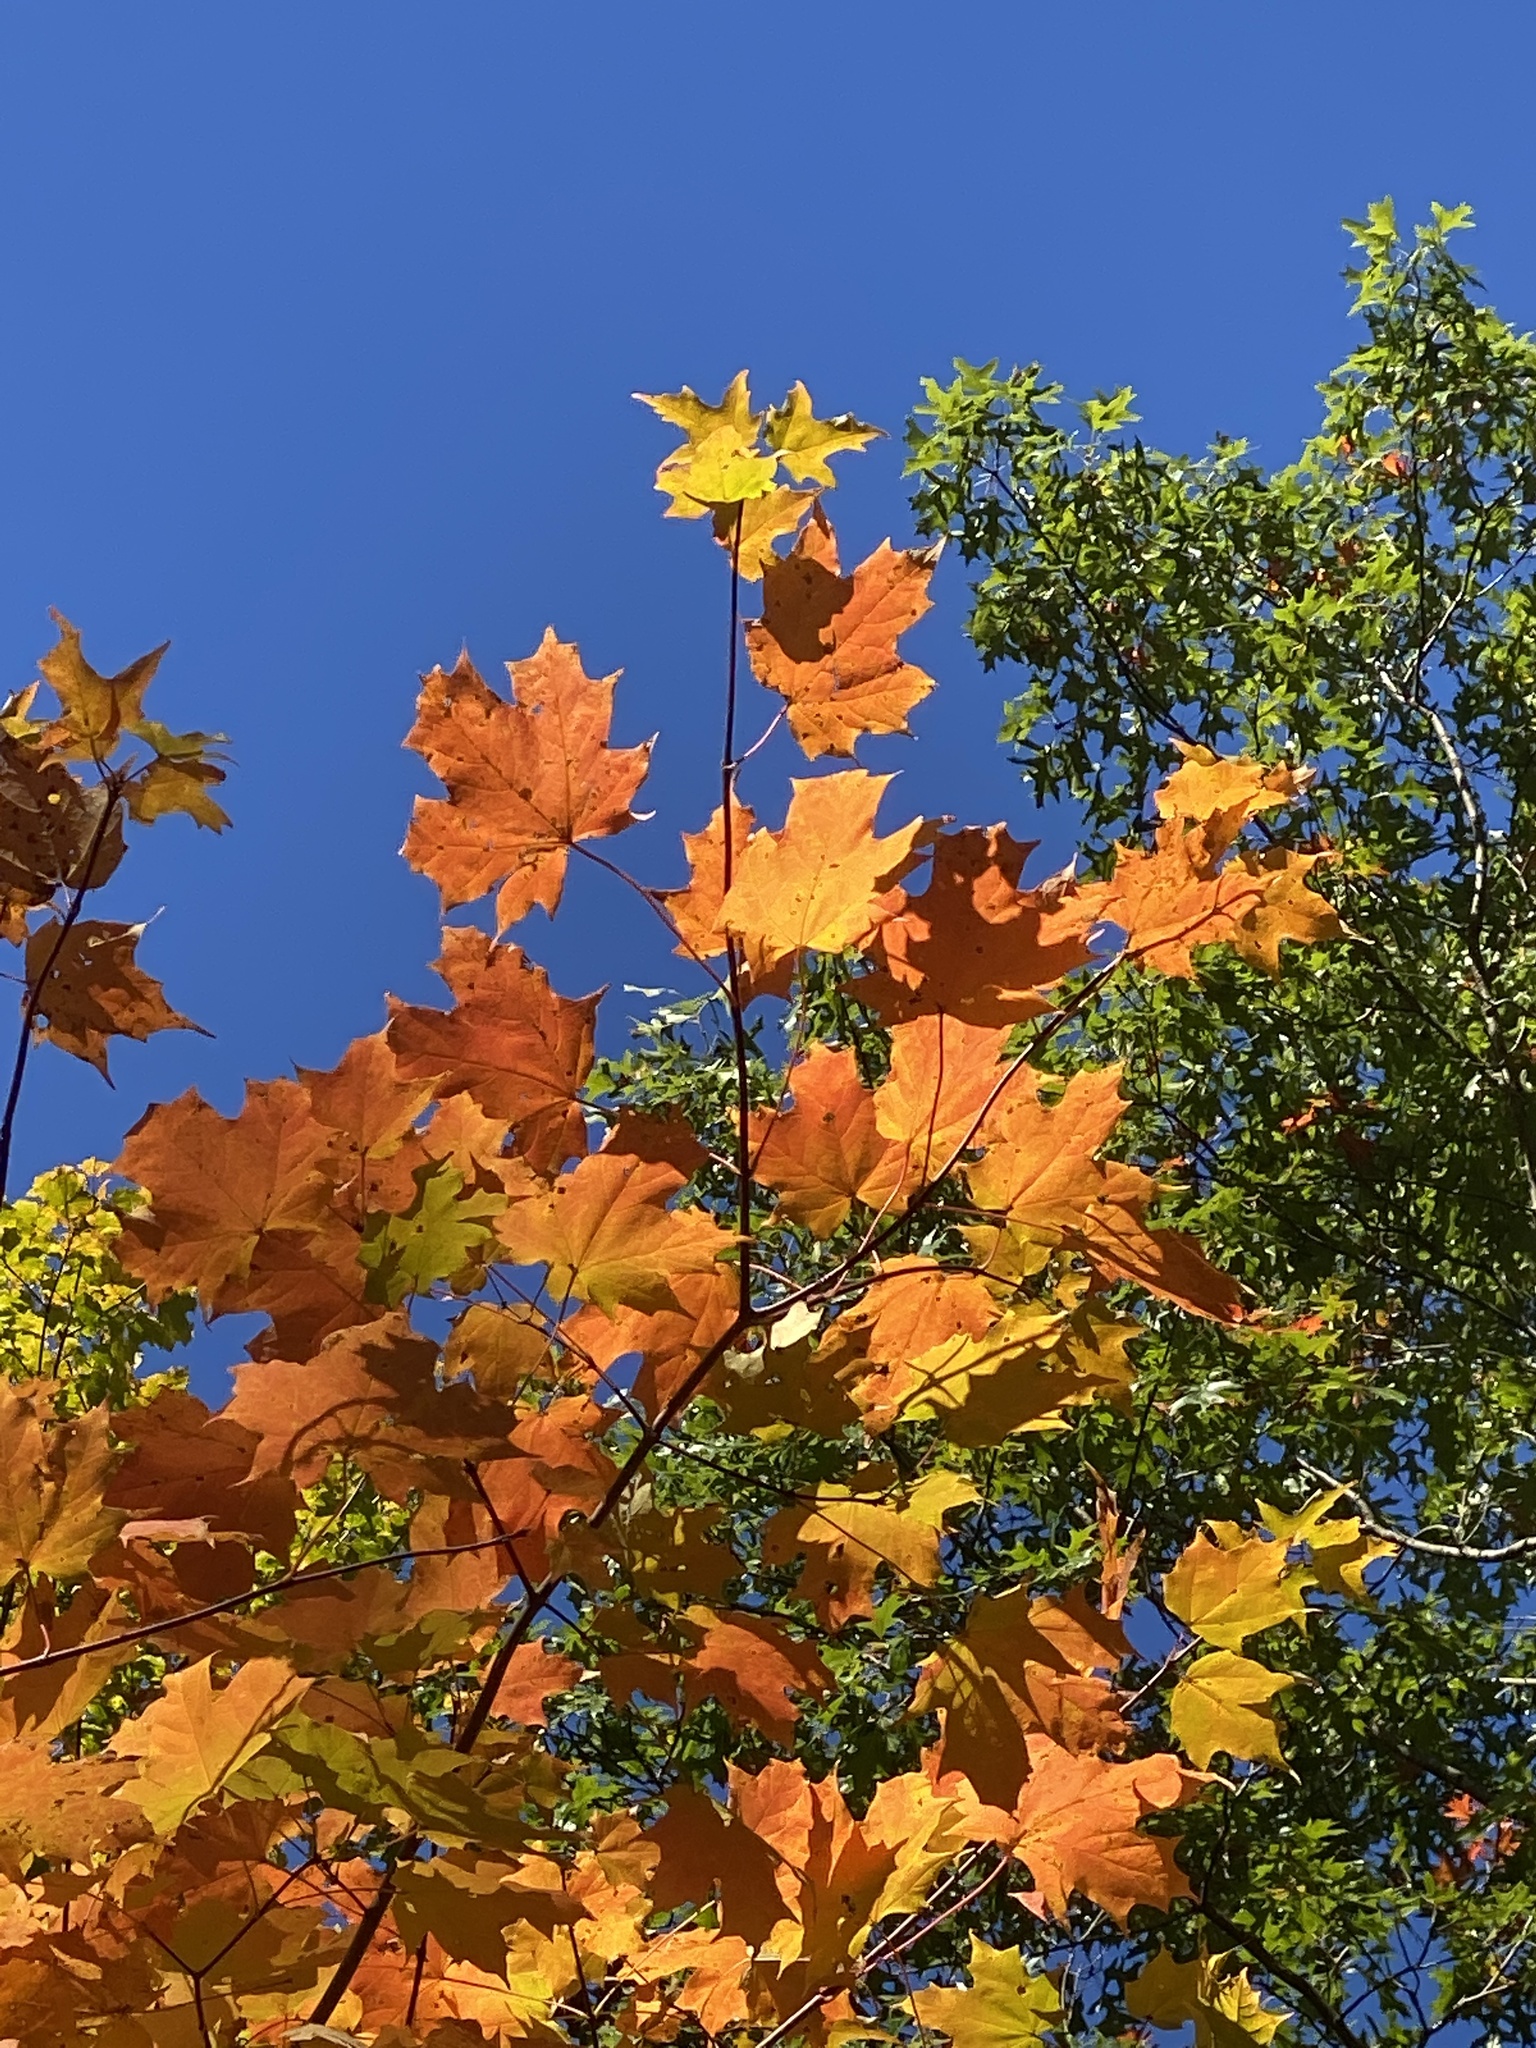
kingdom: Plantae
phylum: Tracheophyta
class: Magnoliopsida
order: Sapindales
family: Sapindaceae
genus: Acer
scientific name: Acer saccharum
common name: Sugar maple
